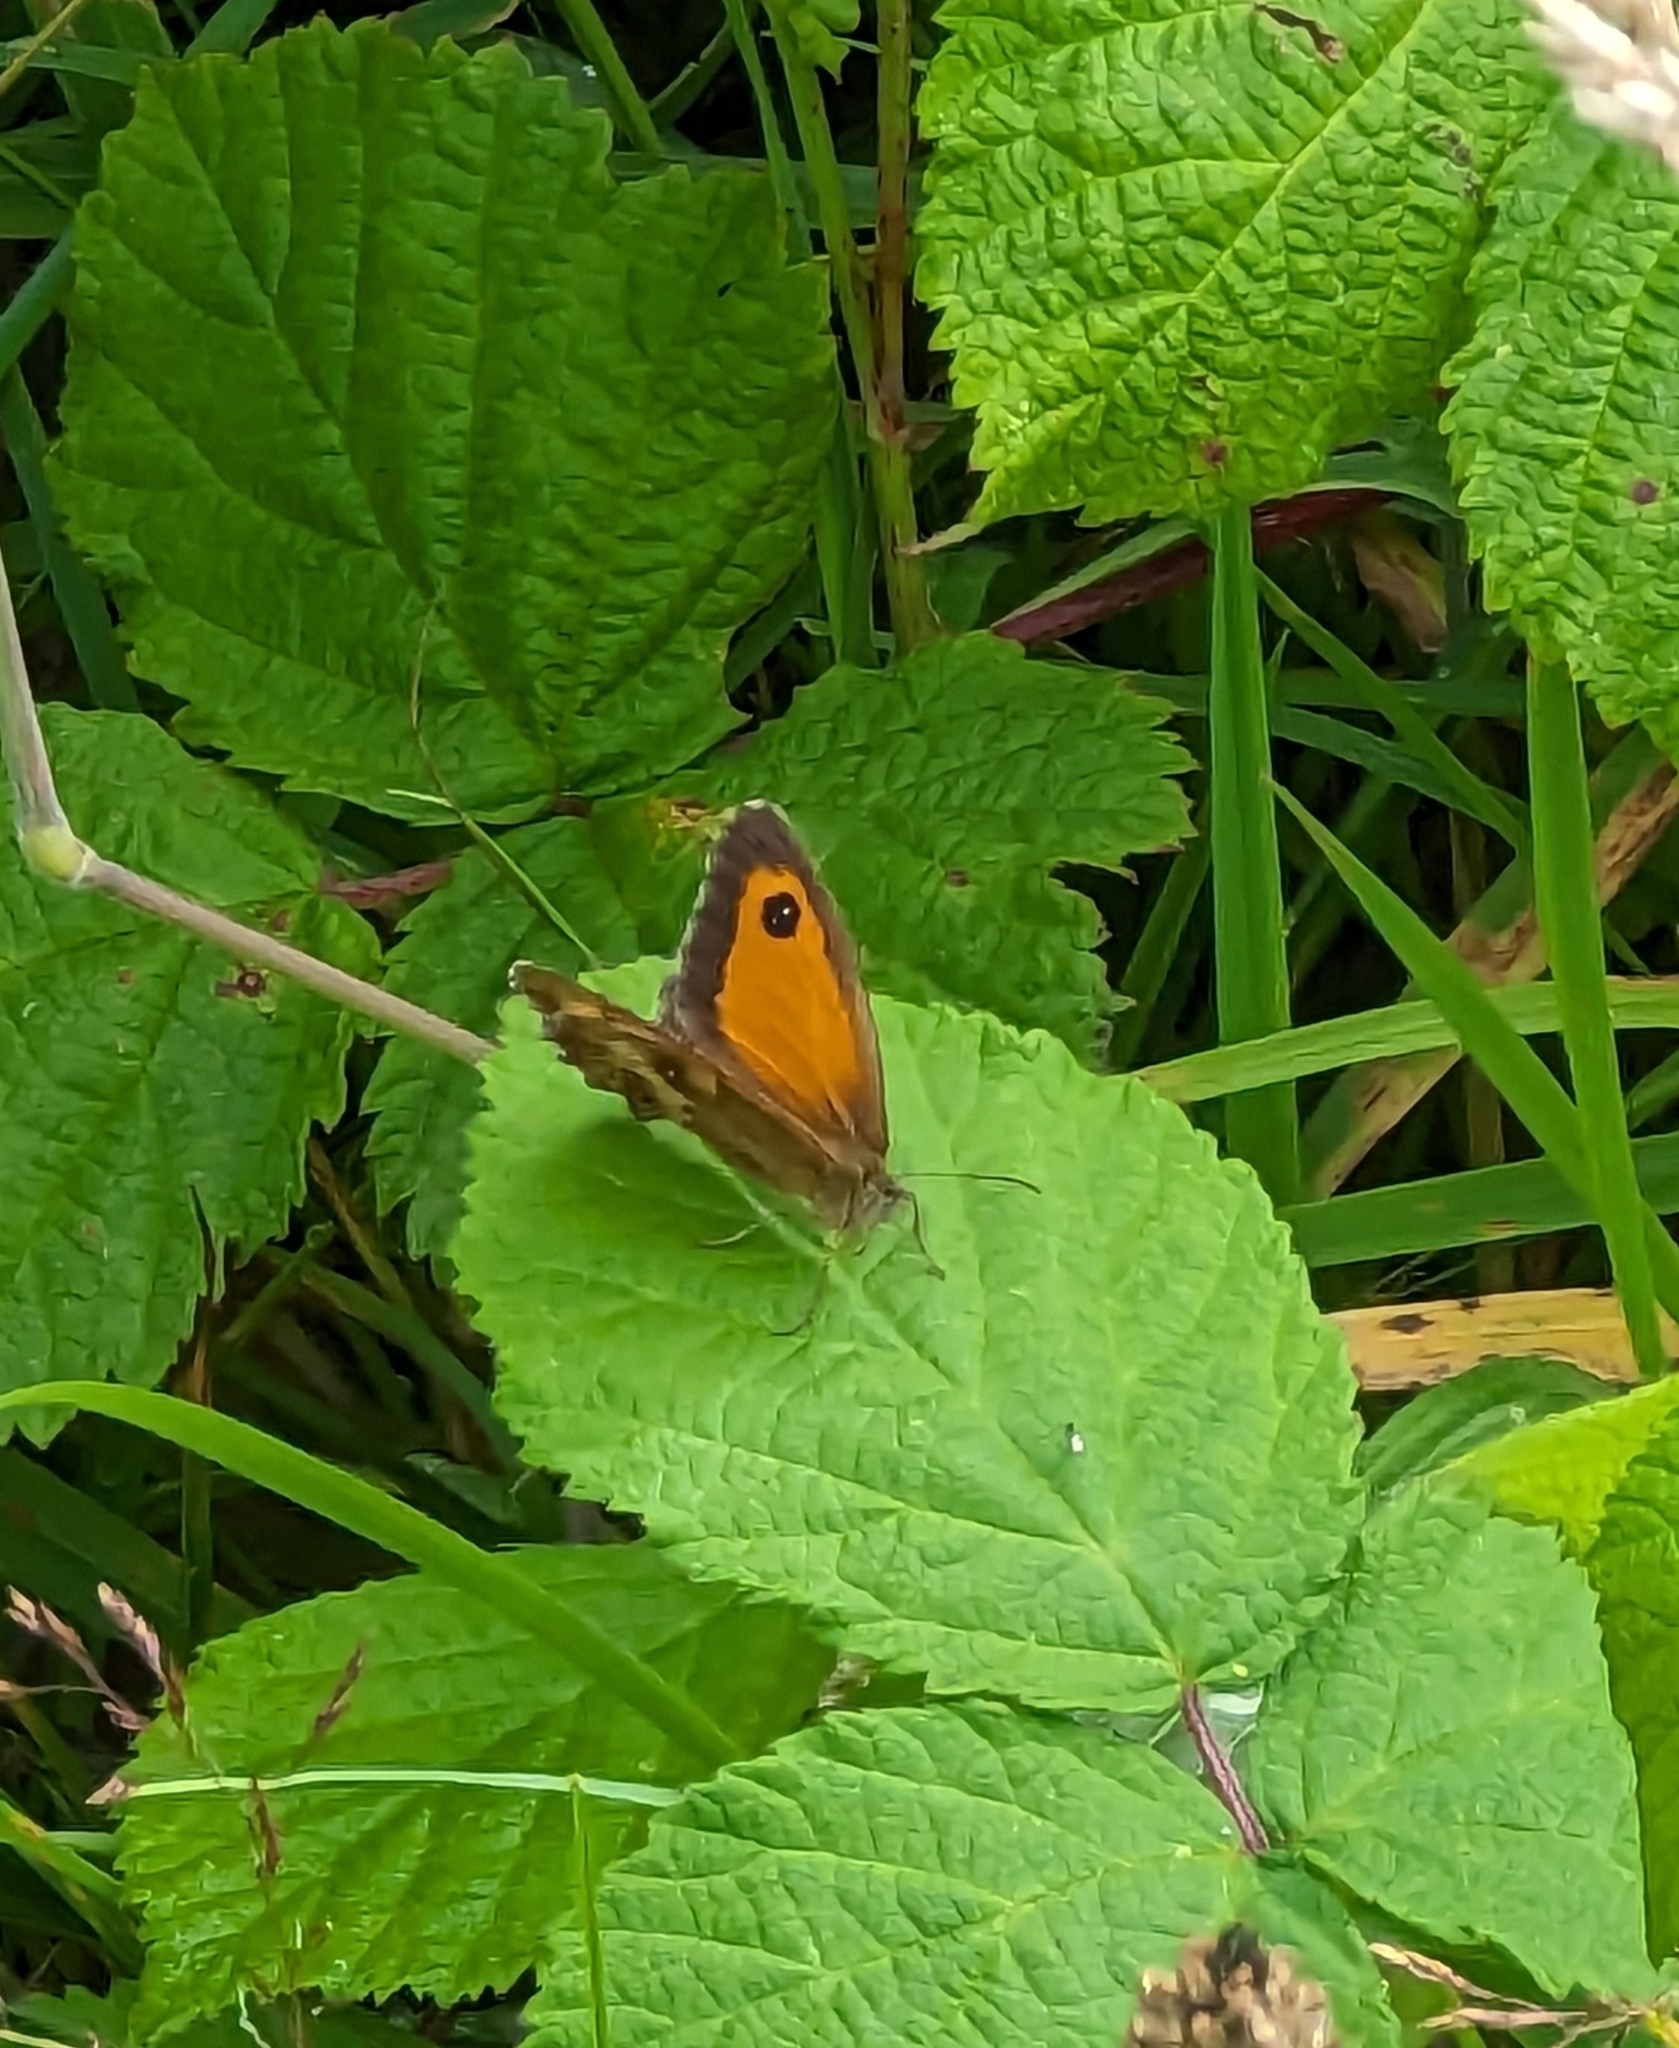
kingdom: Animalia
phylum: Arthropoda
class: Insecta
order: Lepidoptera
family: Nymphalidae
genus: Pyronia
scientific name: Pyronia tithonus
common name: Gatekeeper
